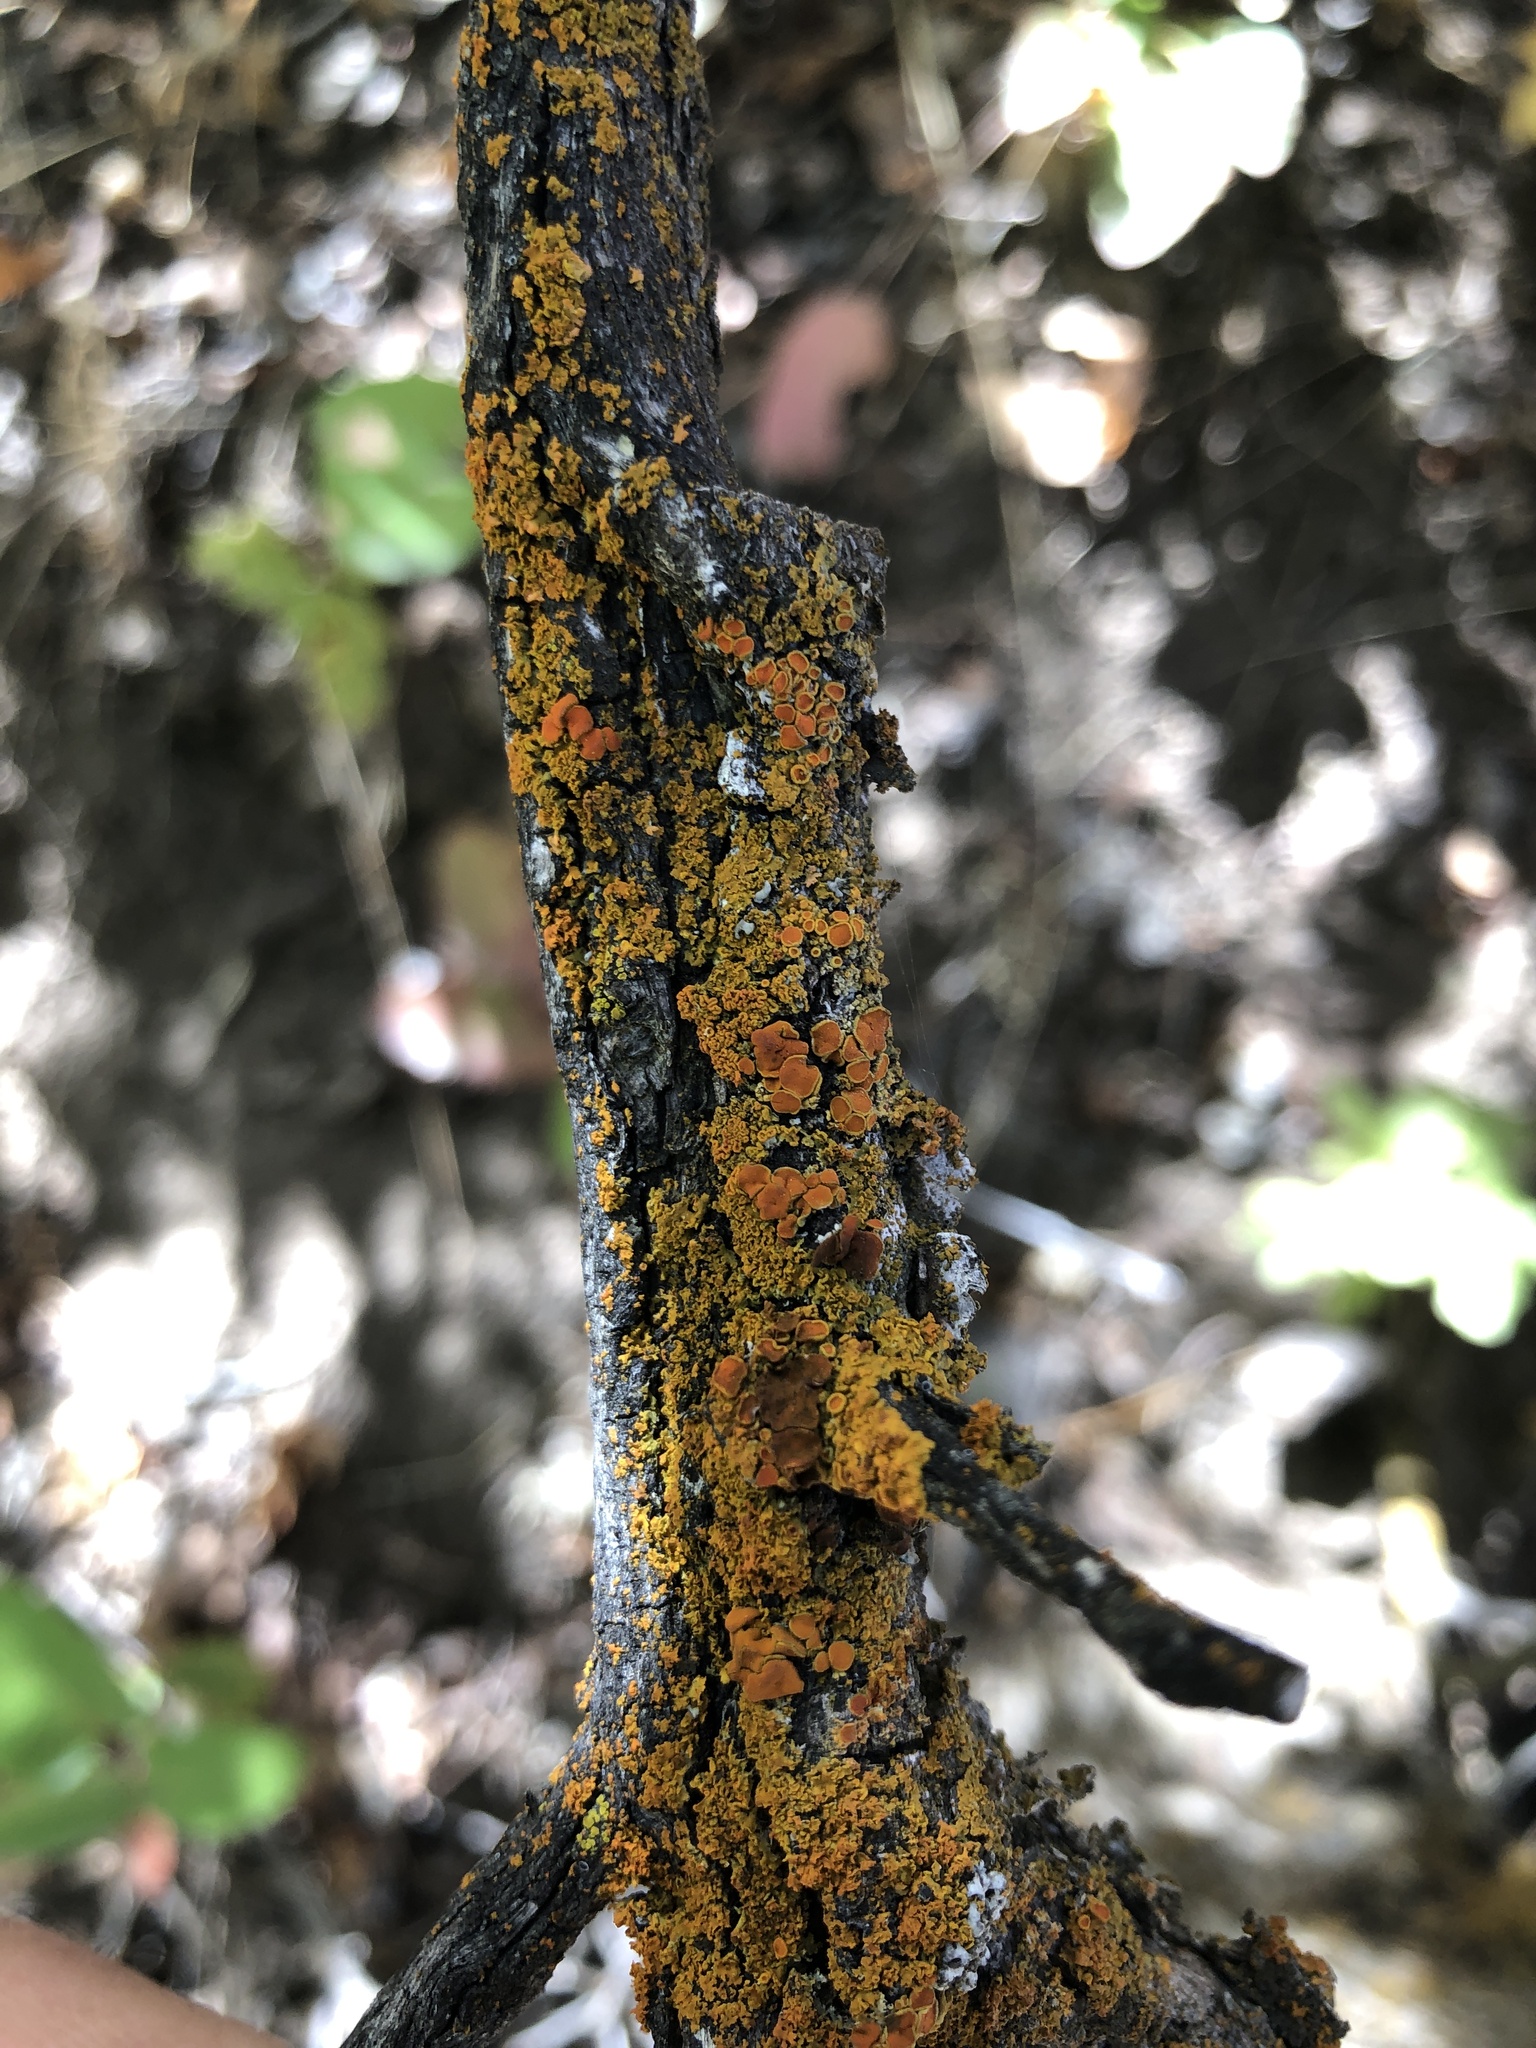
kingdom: Fungi
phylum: Ascomycota
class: Lecanoromycetes
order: Teloschistales
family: Teloschistaceae
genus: Xanthoria
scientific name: Xanthoria parietina
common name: Common orange lichen
